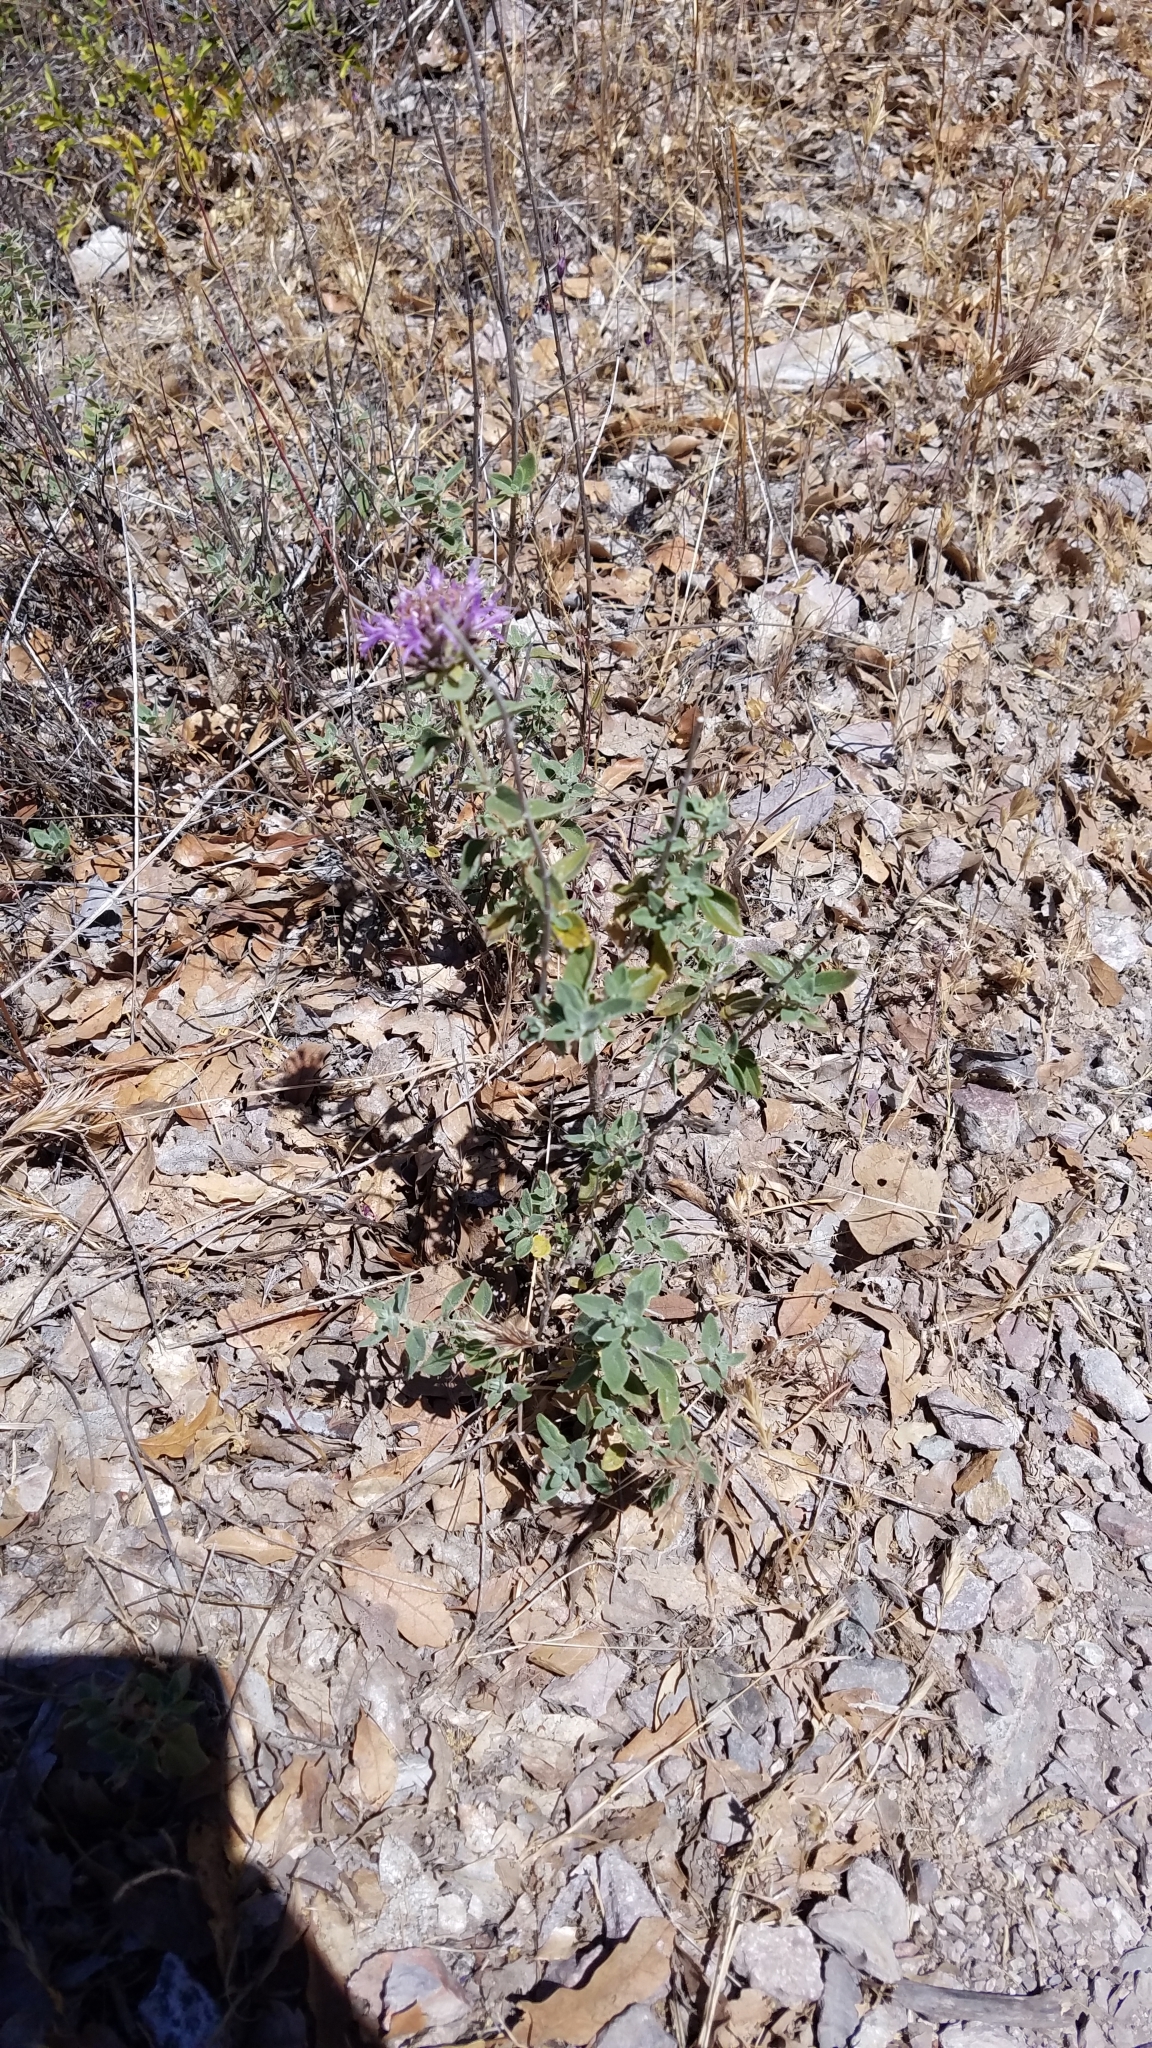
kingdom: Plantae
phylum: Tracheophyta
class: Magnoliopsida
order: Lamiales
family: Lamiaceae
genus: Monardella
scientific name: Monardella odoratissima
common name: Pacific monardella
